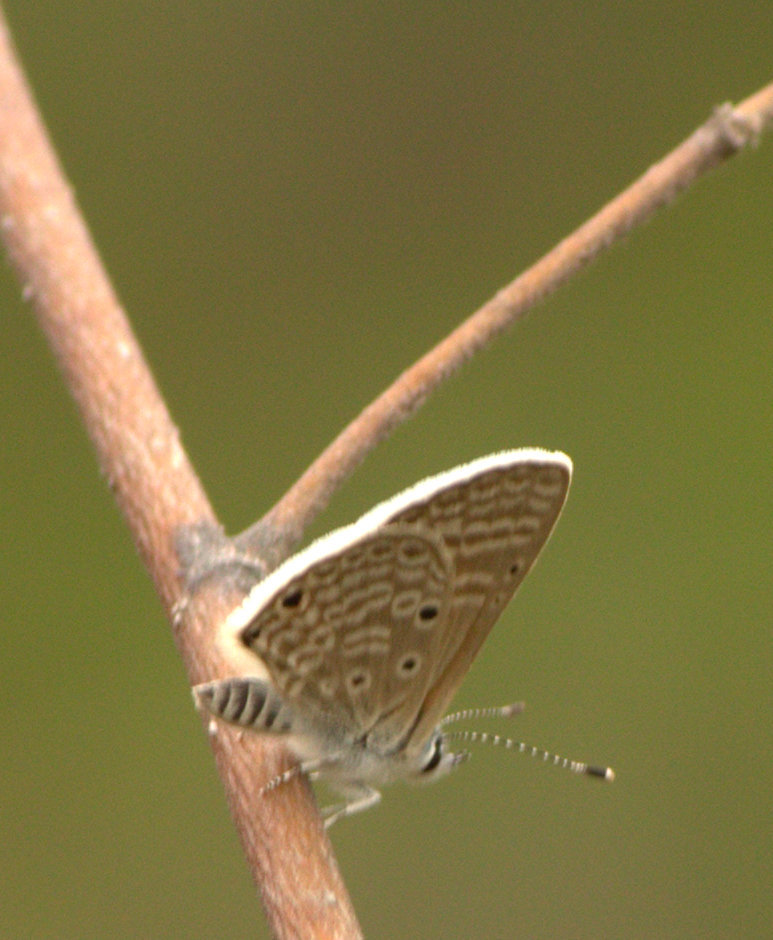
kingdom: Animalia
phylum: Arthropoda
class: Insecta
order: Lepidoptera
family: Lycaenidae
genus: Azanus
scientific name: Azanus ubaldus
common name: Desert babul blue
